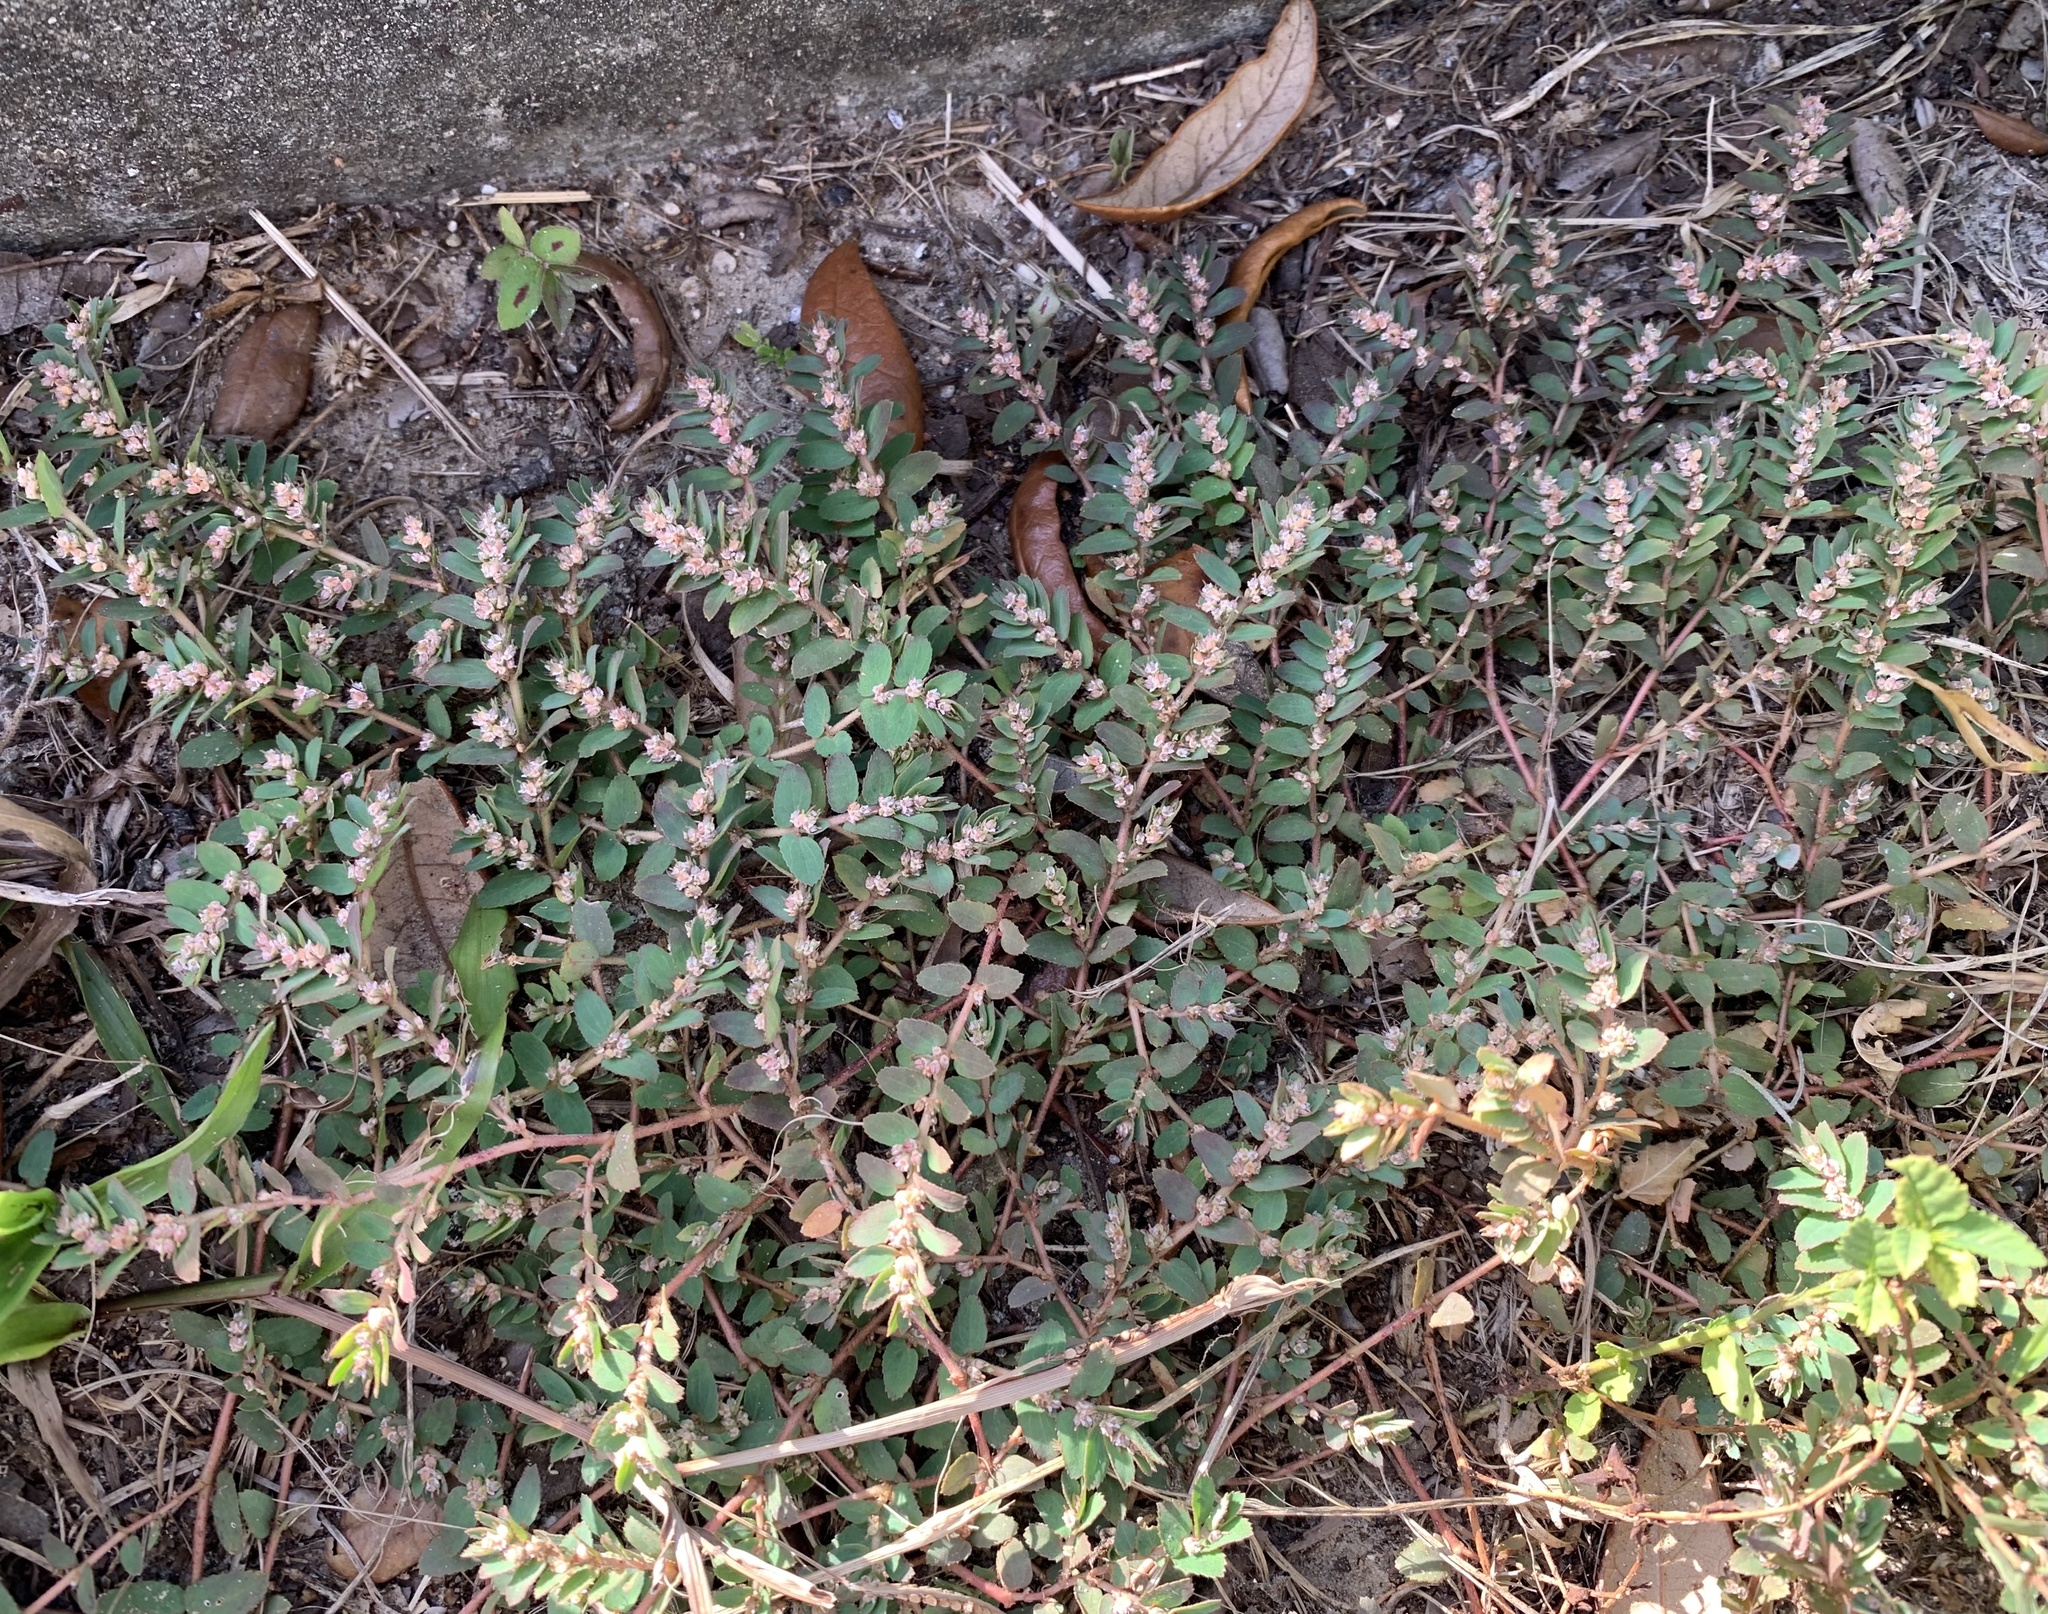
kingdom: Plantae
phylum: Tracheophyta
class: Magnoliopsida
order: Malpighiales
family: Euphorbiaceae
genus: Euphorbia
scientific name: Euphorbia thymifolia
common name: Gulf sandmat
